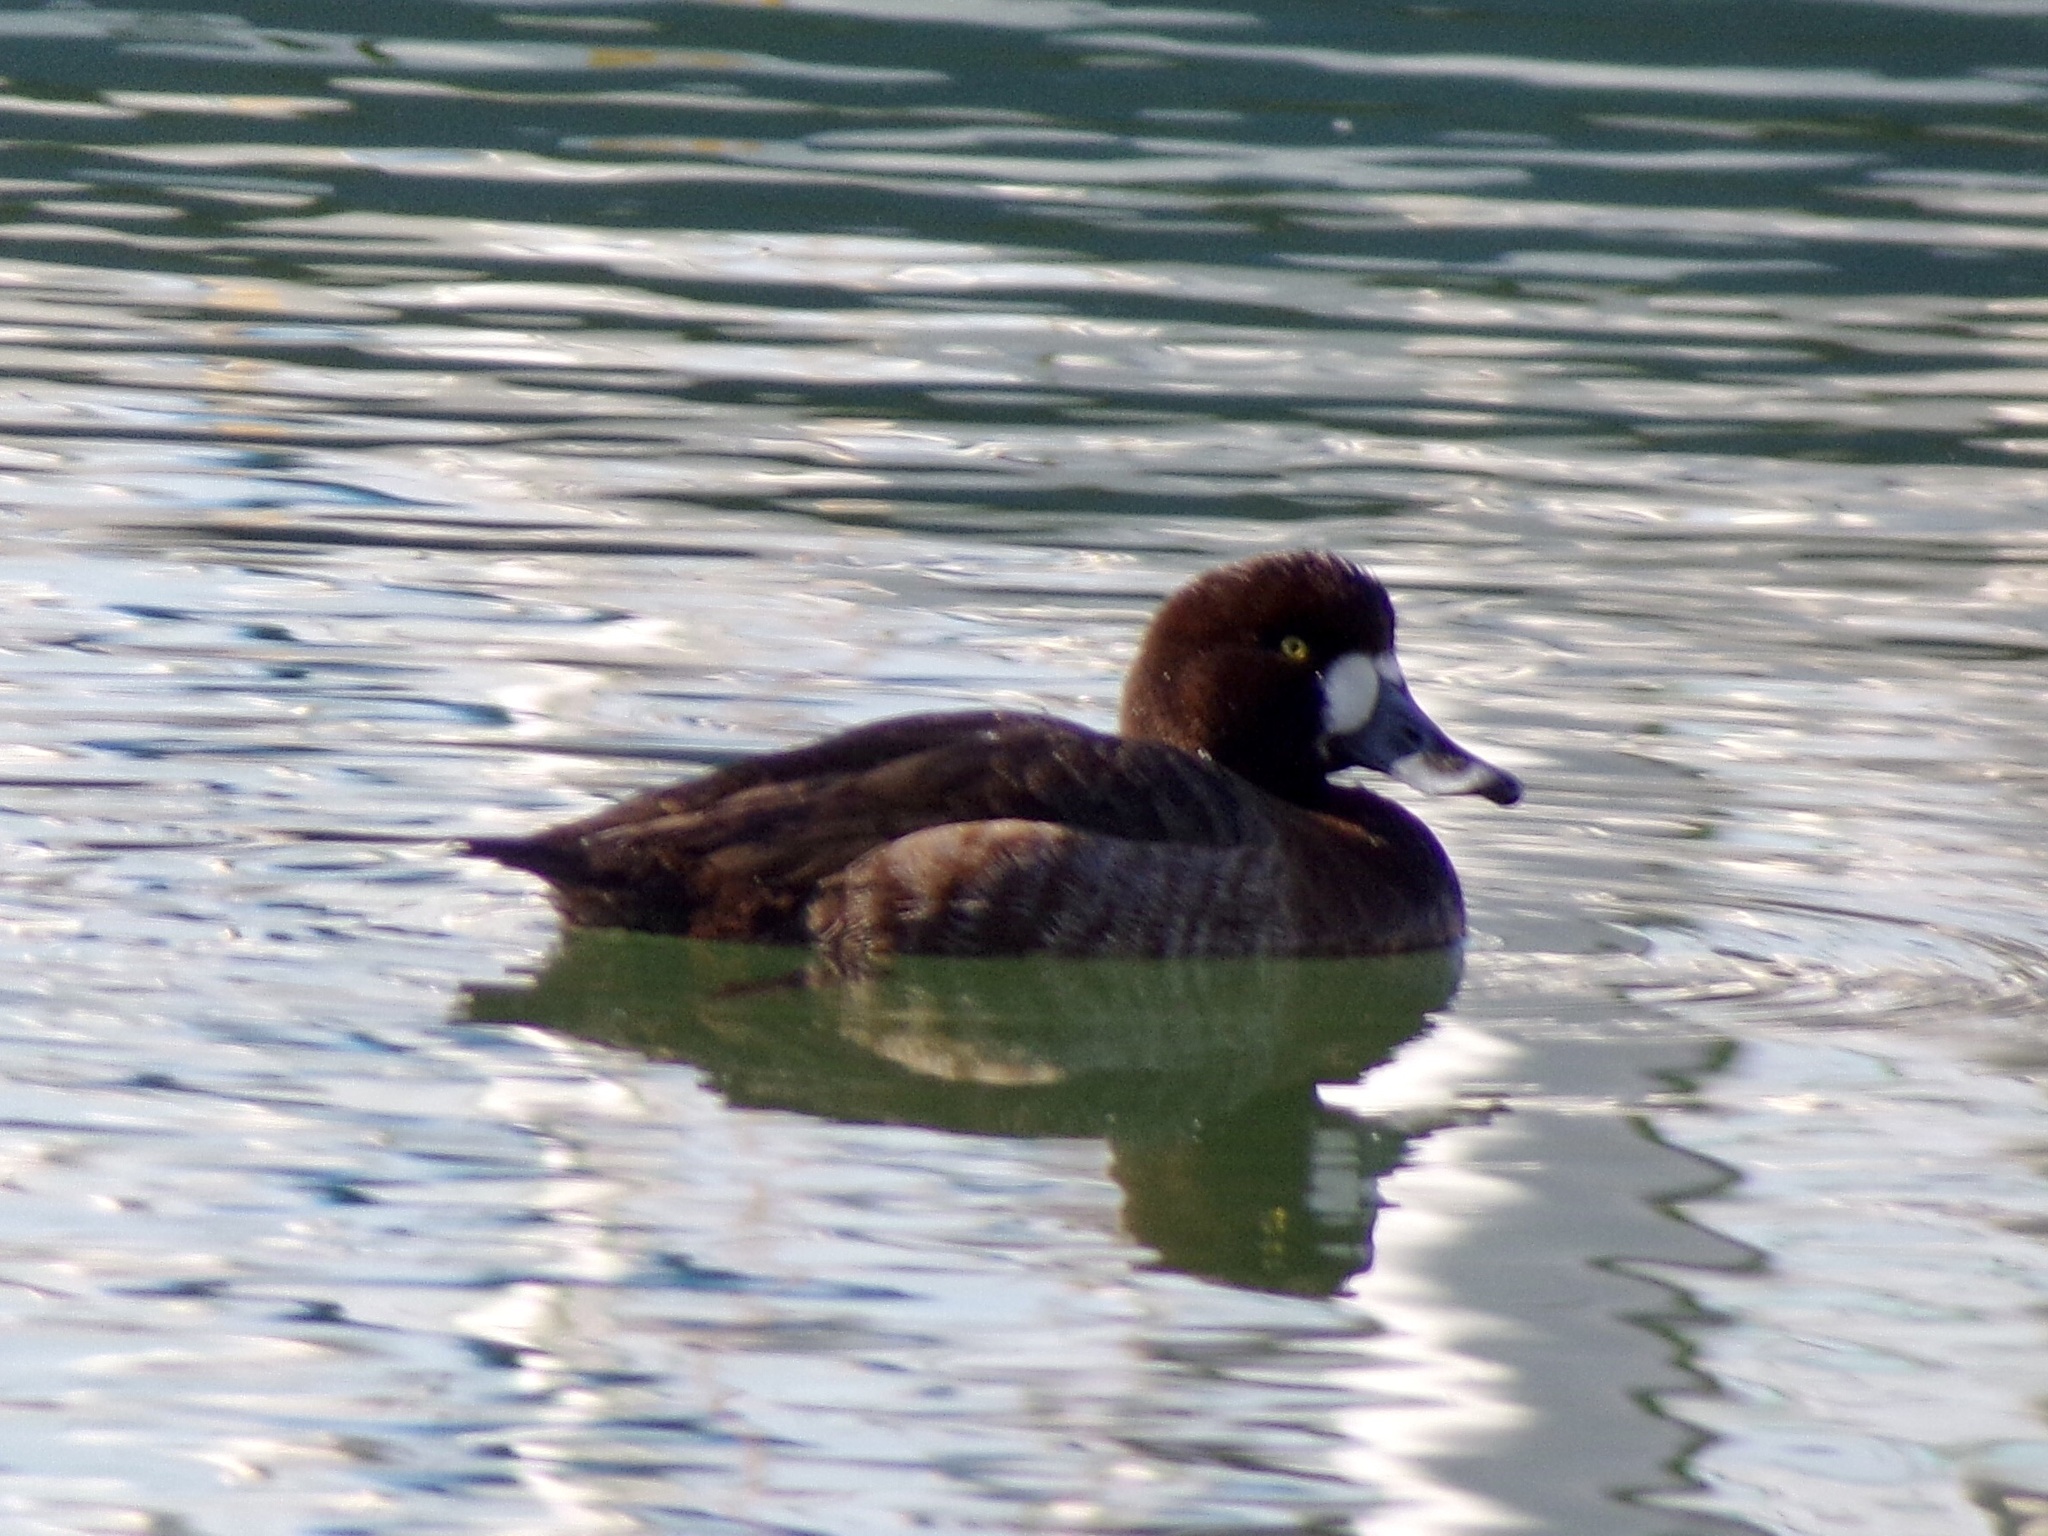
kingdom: Animalia
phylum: Chordata
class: Aves
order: Anseriformes
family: Anatidae
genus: Aythya
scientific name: Aythya marila
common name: Greater scaup
